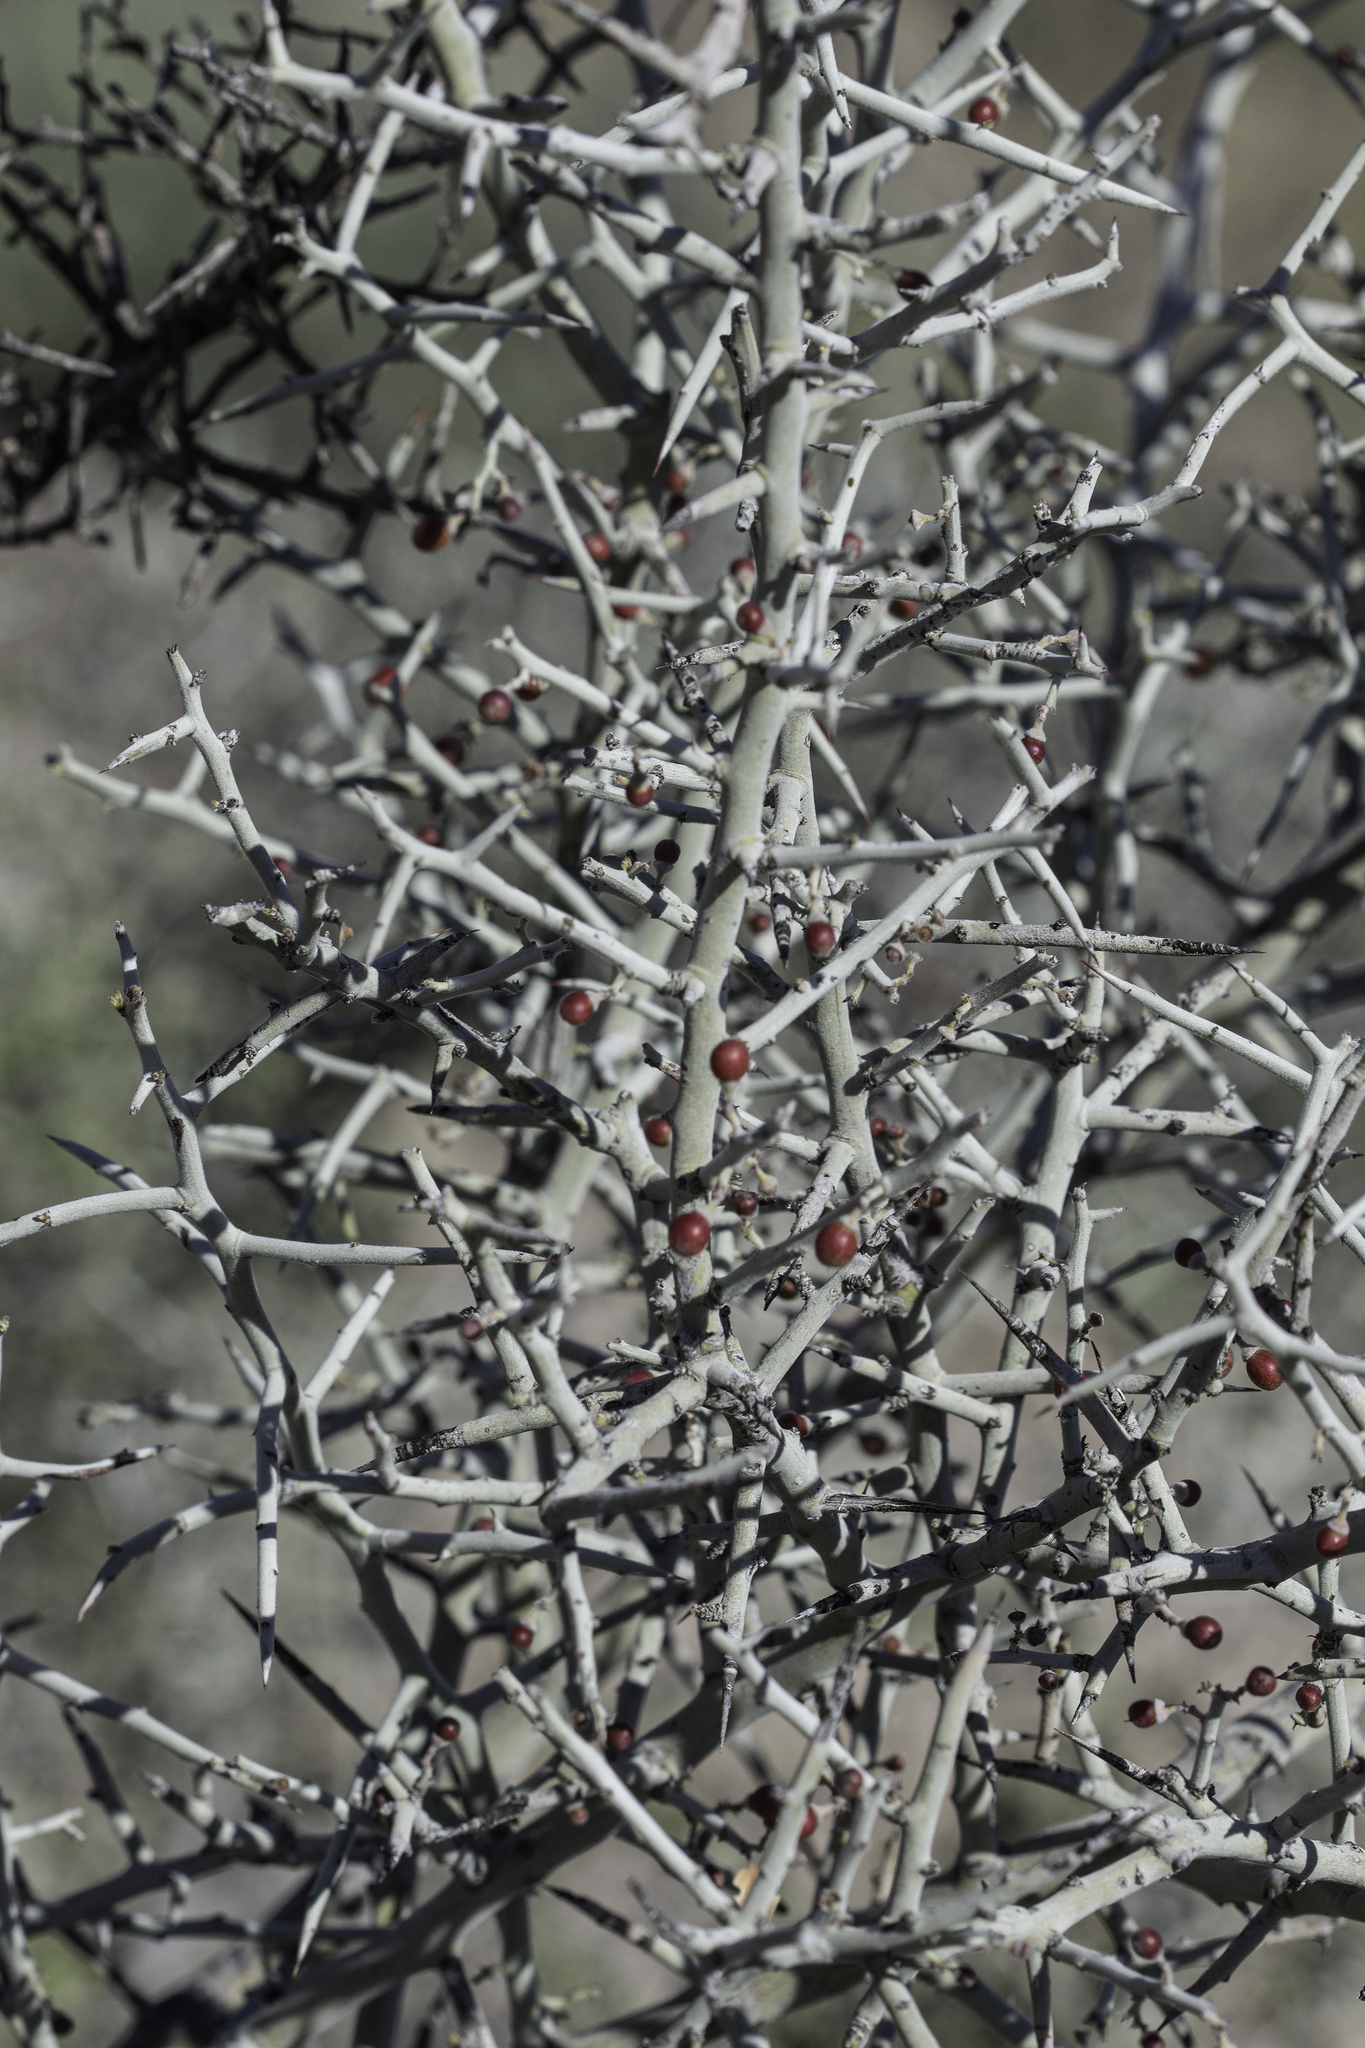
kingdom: Plantae
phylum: Tracheophyta
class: Magnoliopsida
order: Rosales
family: Rhamnaceae
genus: Sarcomphalus
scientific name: Sarcomphalus obtusifolius
